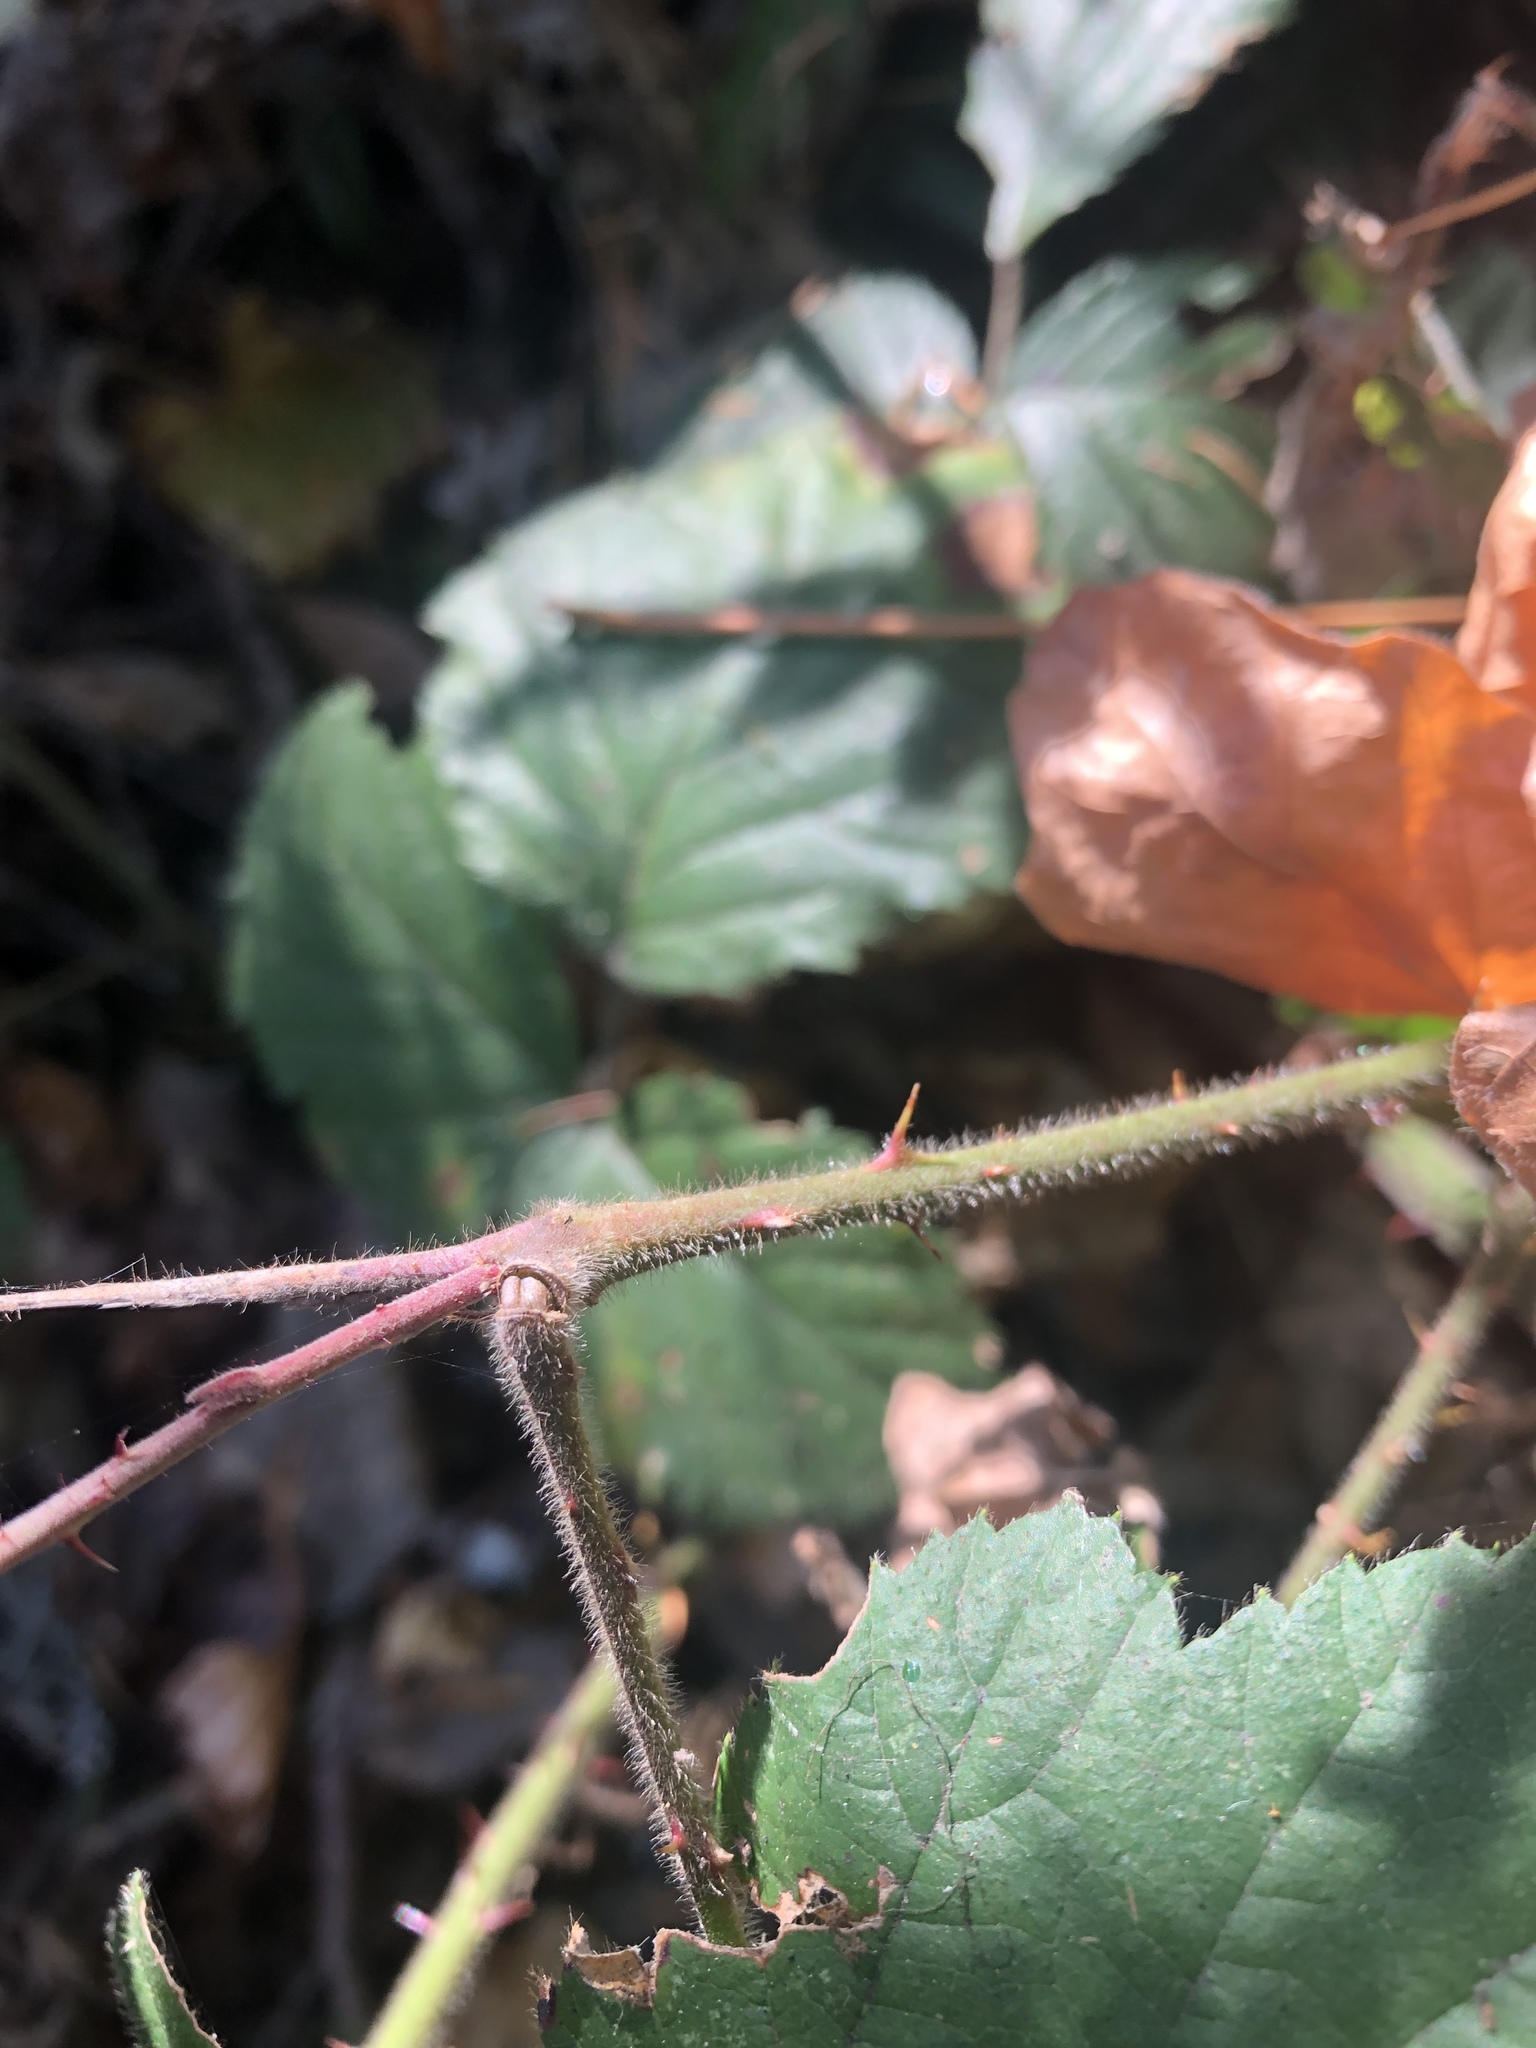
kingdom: Plantae
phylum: Tracheophyta
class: Magnoliopsida
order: Rosales
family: Rosaceae
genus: Rubus
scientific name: Rubus vestitus
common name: European blackberry
